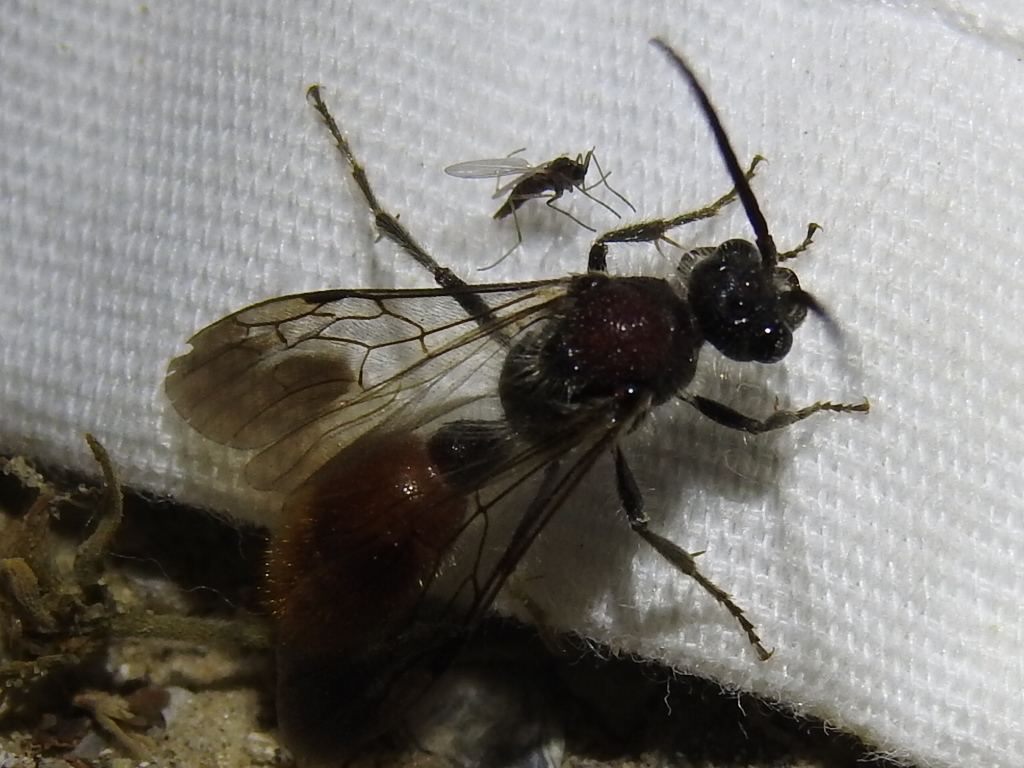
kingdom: Animalia
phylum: Arthropoda
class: Insecta
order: Hymenoptera
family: Mutillidae
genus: Sphaeropthalma
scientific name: Sphaeropthalma imperialis
